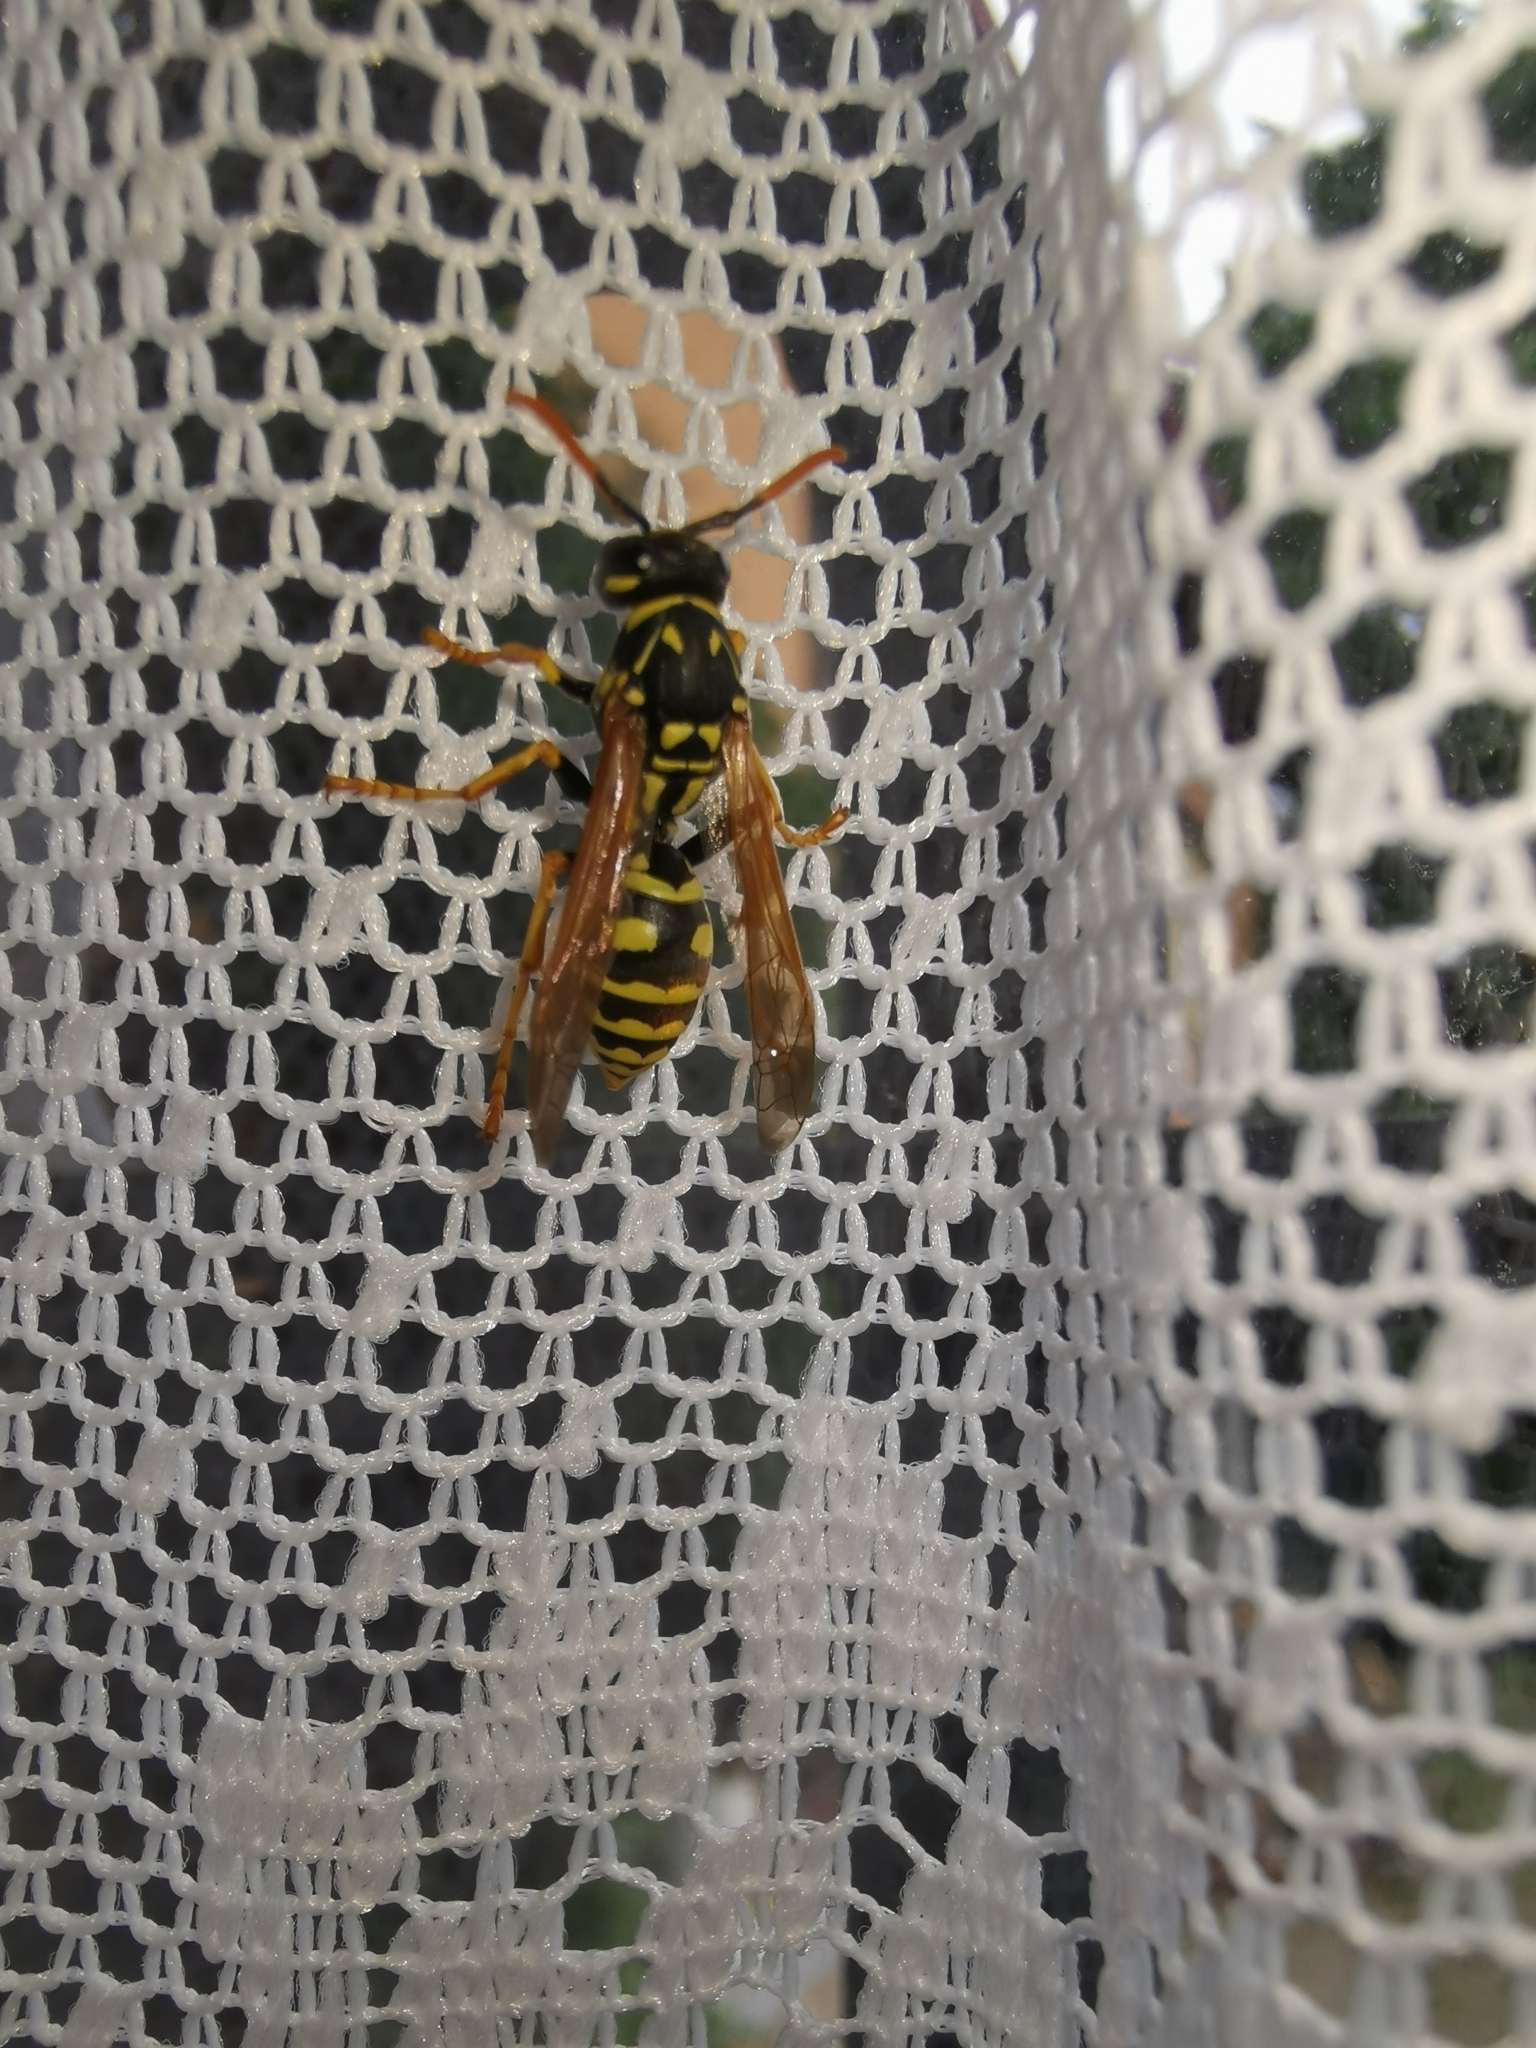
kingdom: Animalia
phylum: Arthropoda
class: Insecta
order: Hymenoptera
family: Eumenidae
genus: Polistes
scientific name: Polistes dominula
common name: Paper wasp
